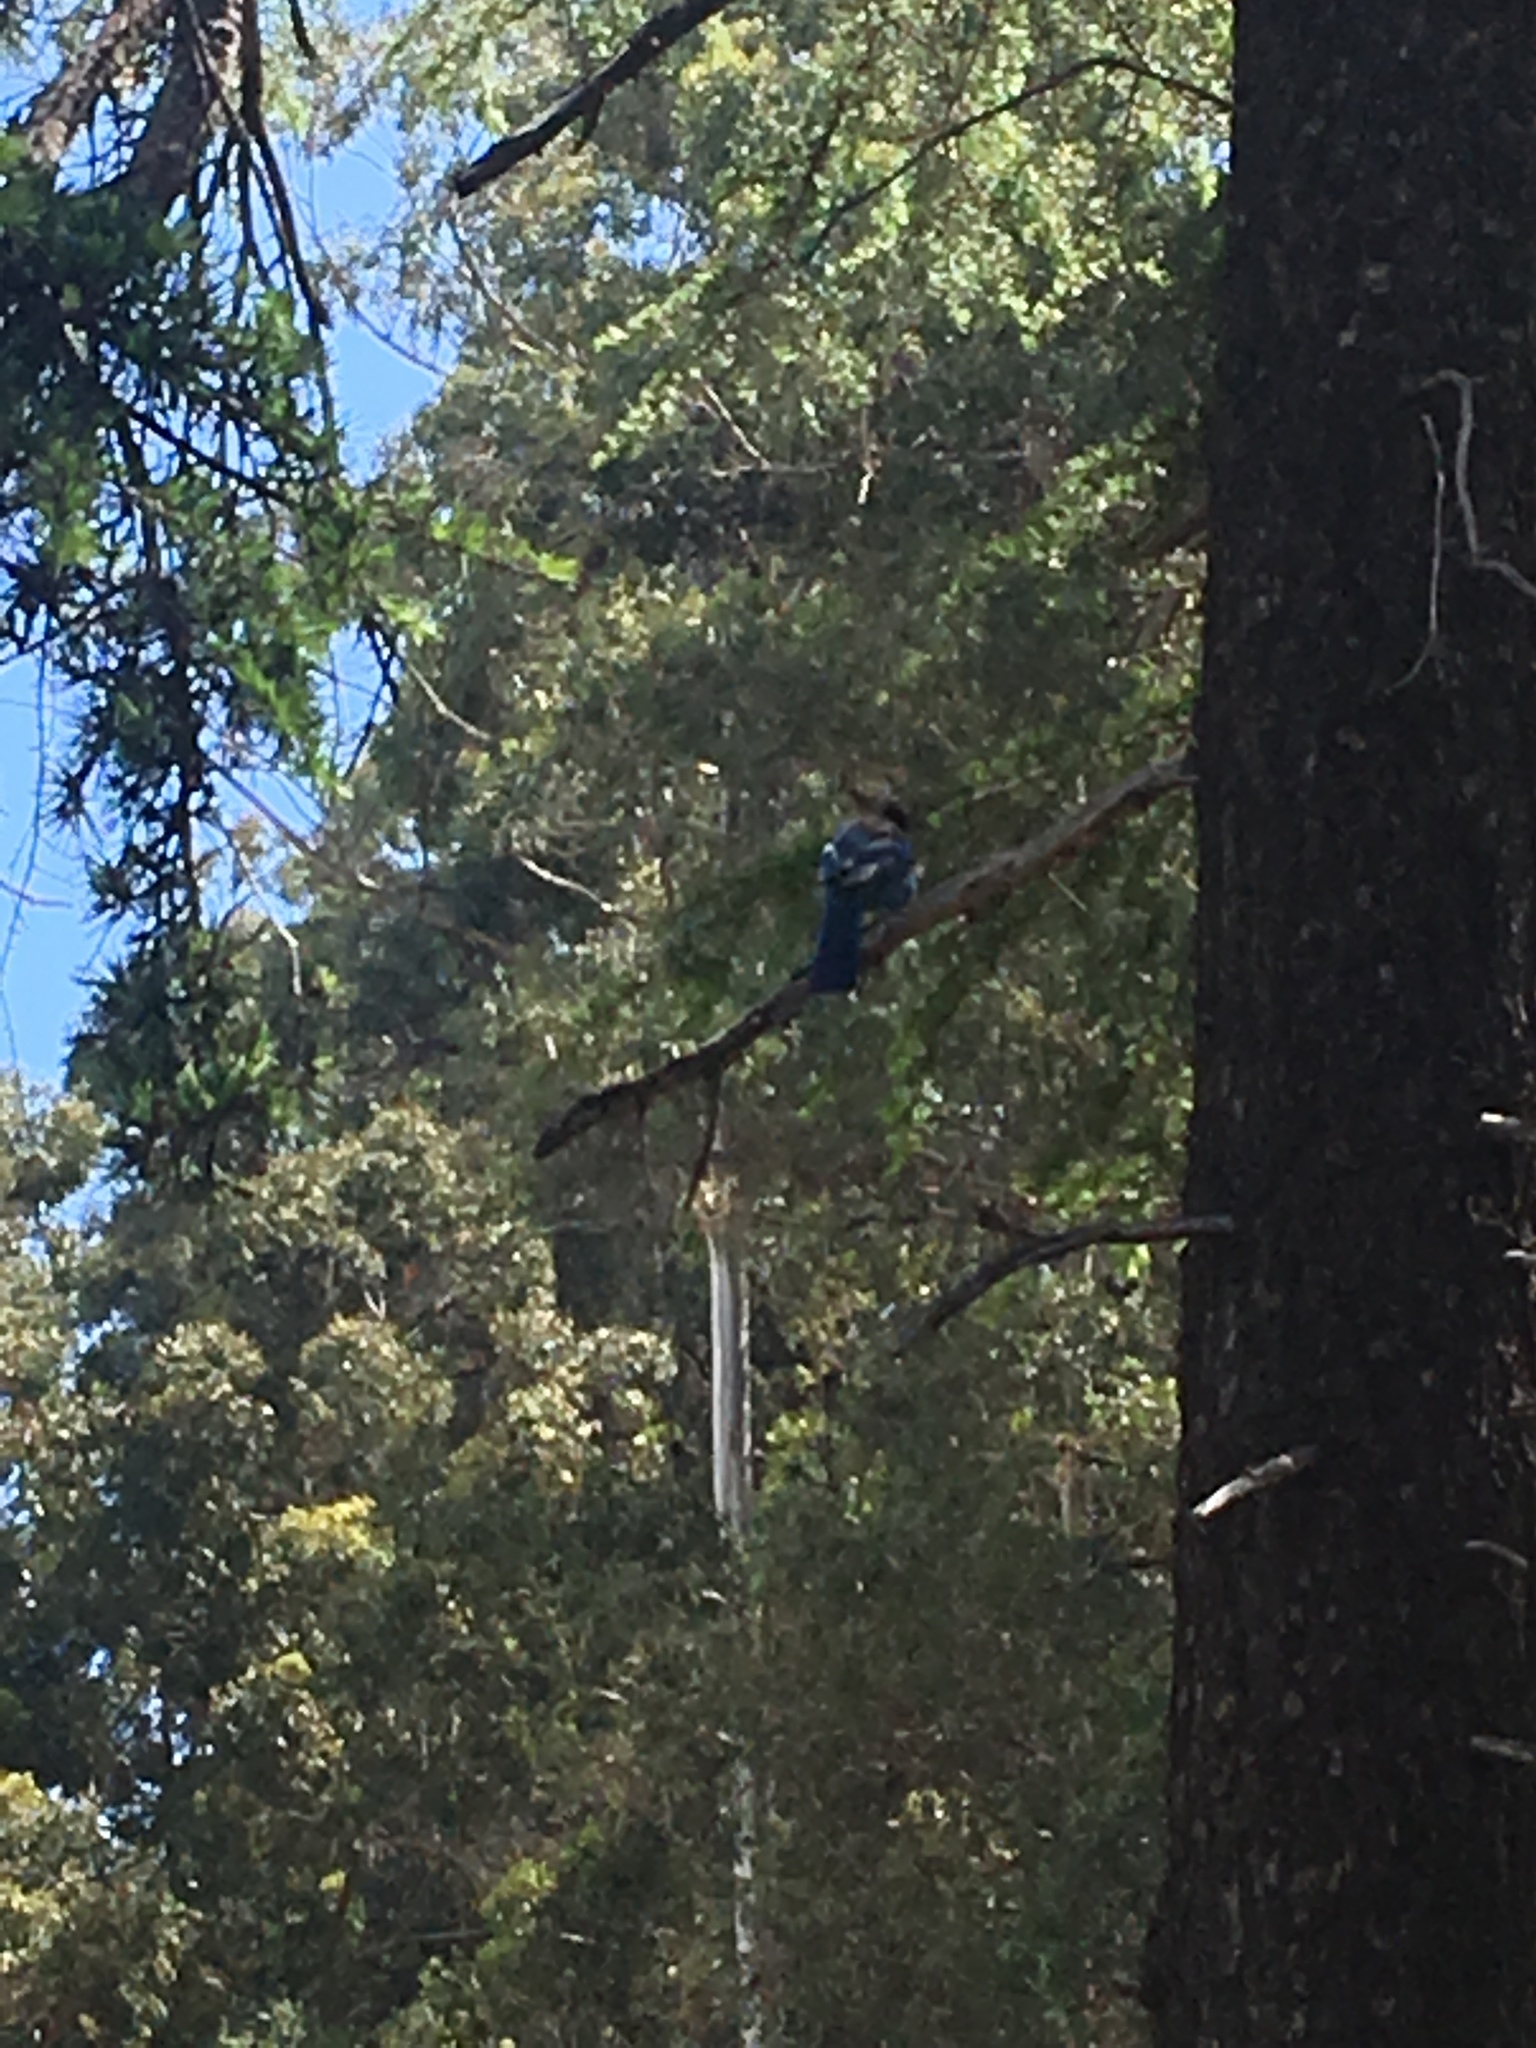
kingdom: Animalia
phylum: Chordata
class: Aves
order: Passeriformes
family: Corvidae
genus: Cyanocitta
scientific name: Cyanocitta stelleri
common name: Steller's jay
